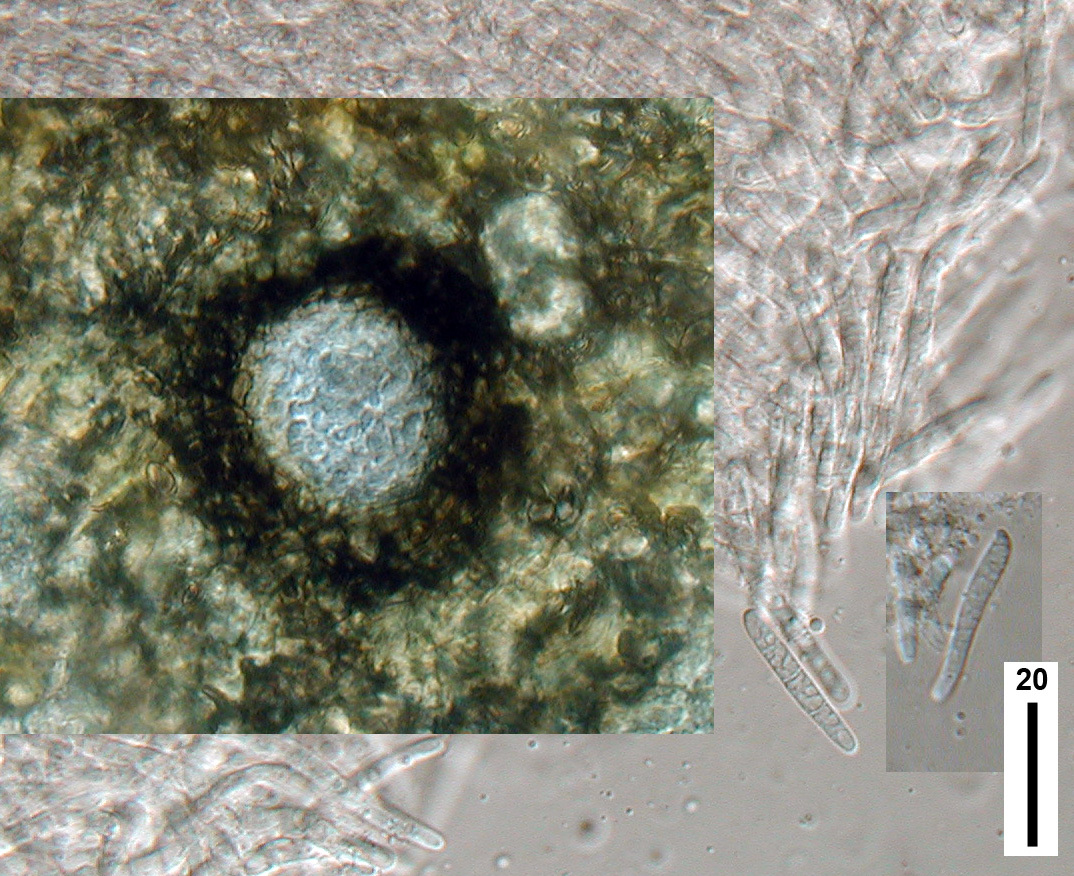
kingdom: Fungi
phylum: Ascomycota
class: Dothideomycetes
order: Pleosporales
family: Phaeosphaeriaceae
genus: Stagonospora
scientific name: Stagonospora calystegiae
